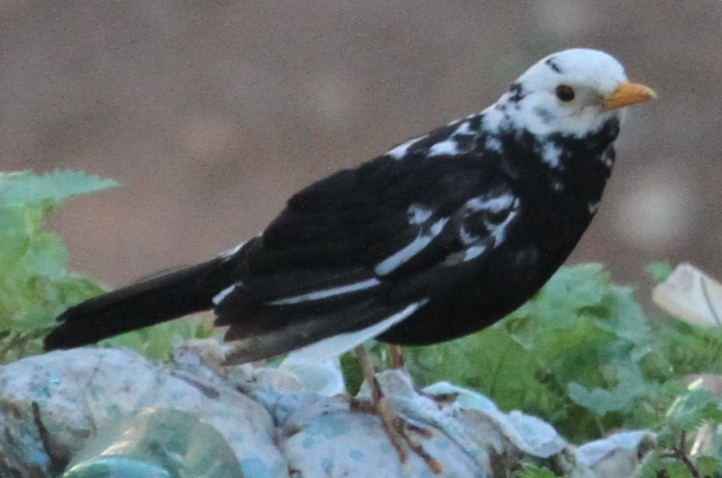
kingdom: Animalia
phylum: Chordata
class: Aves
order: Passeriformes
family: Turdidae
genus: Turdus
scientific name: Turdus merula
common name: Common blackbird
